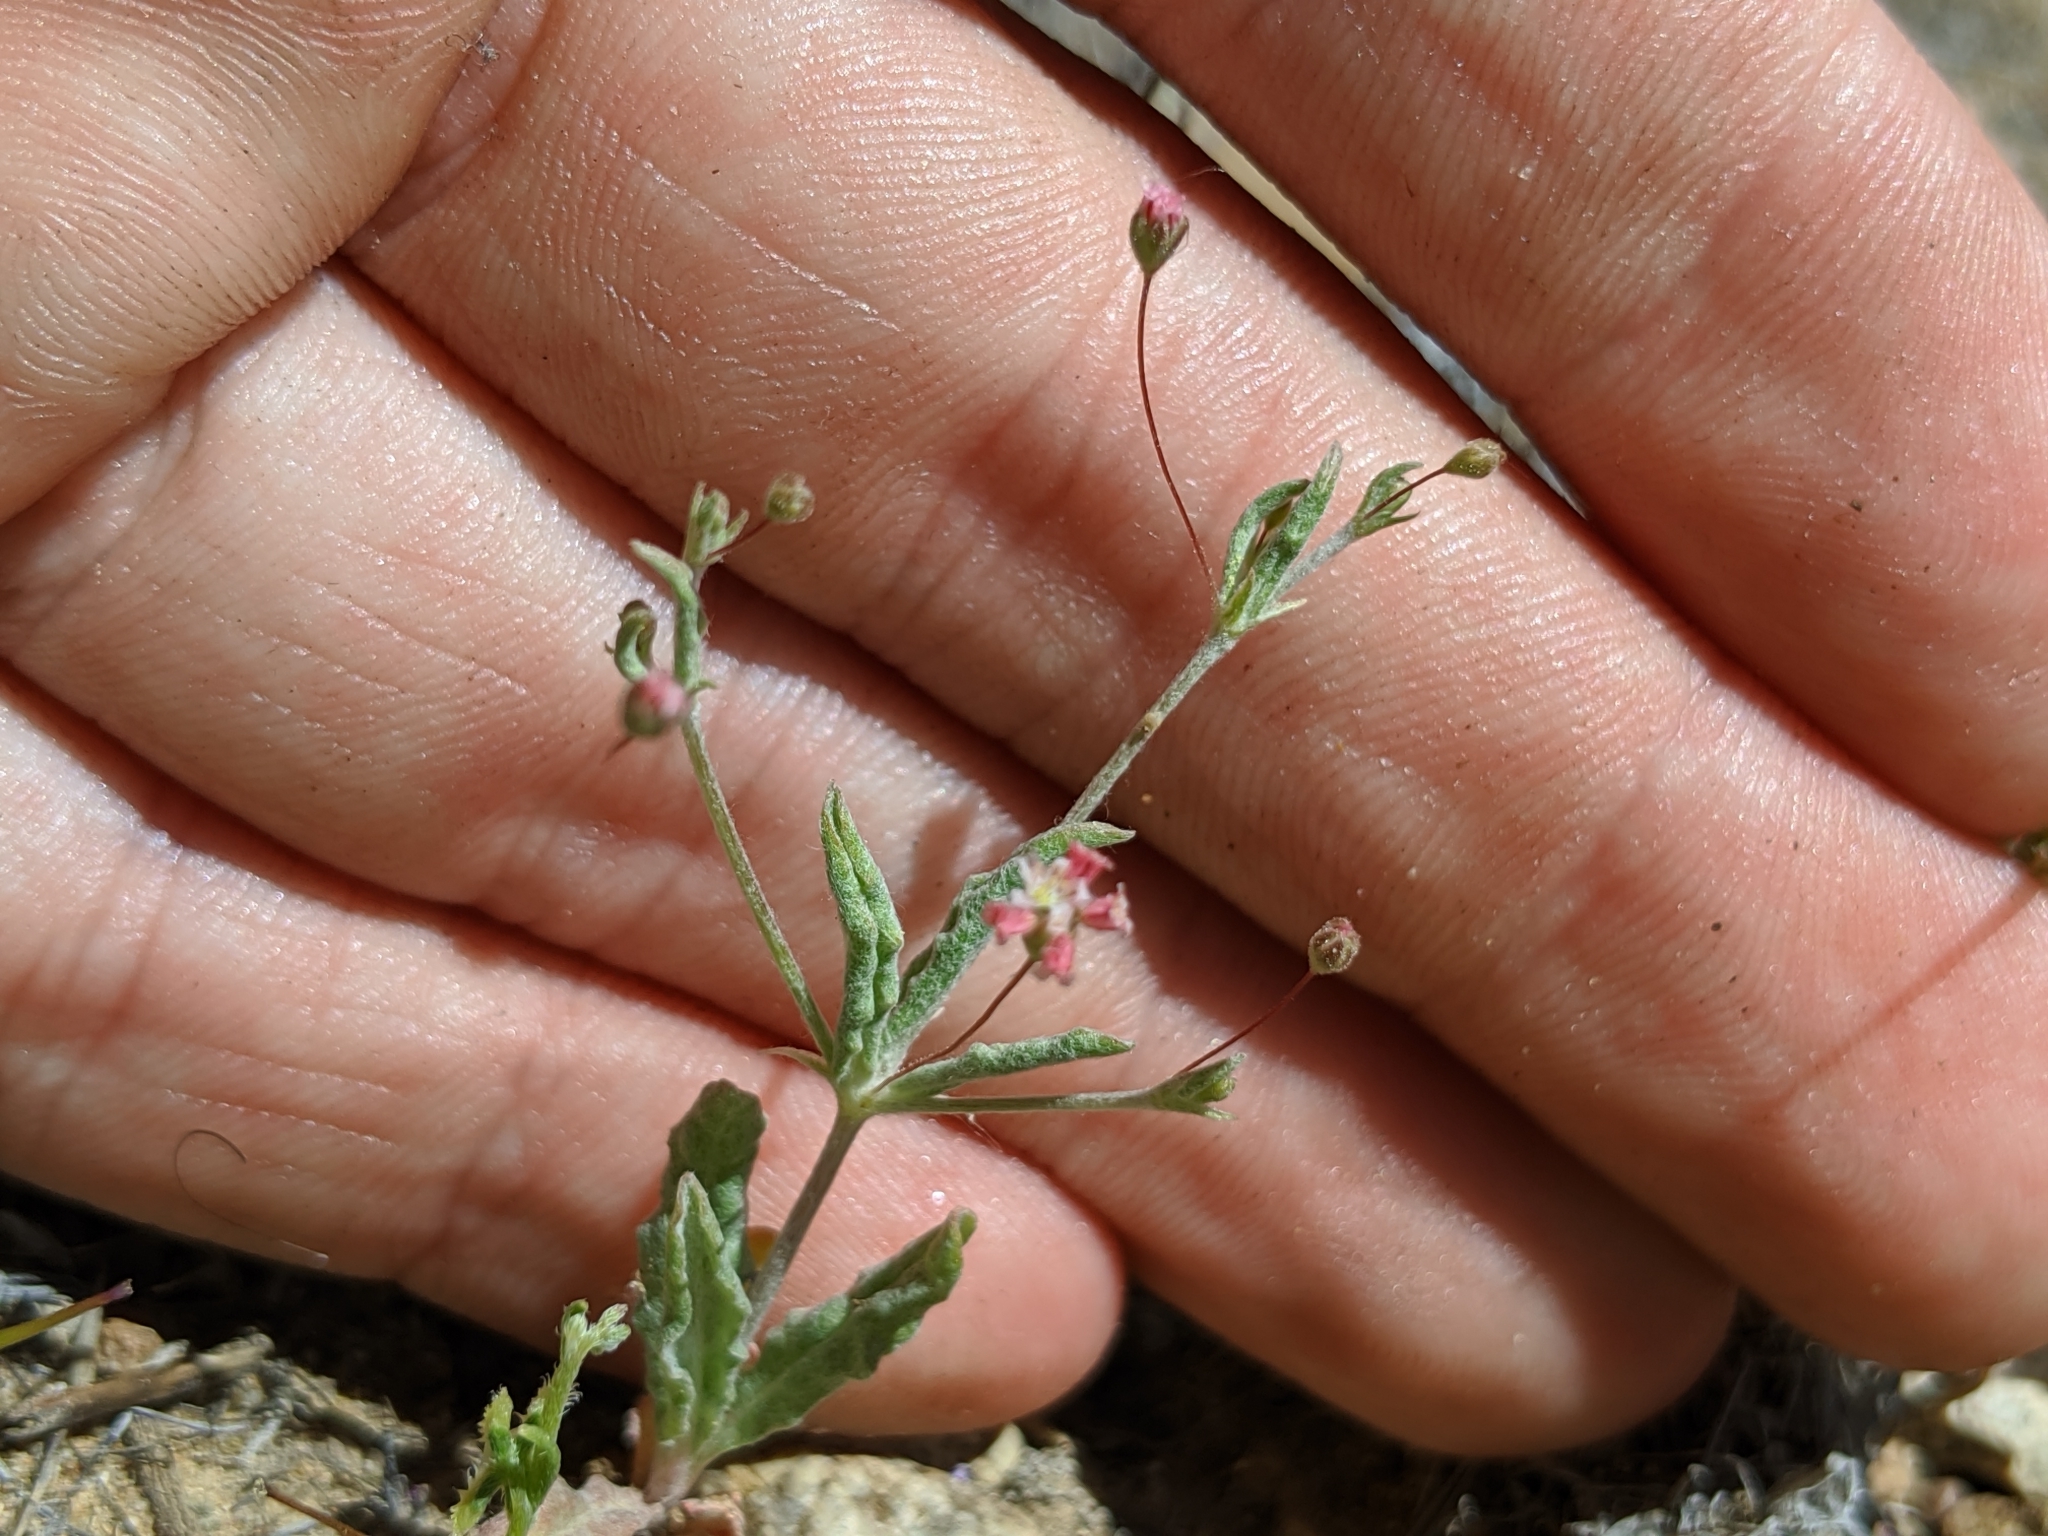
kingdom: Plantae
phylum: Tracheophyta
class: Magnoliopsida
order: Caryophyllales
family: Polygonaceae
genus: Eriogonum
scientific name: Eriogonum gracillimum
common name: Rose-and-white wild buckwheat
